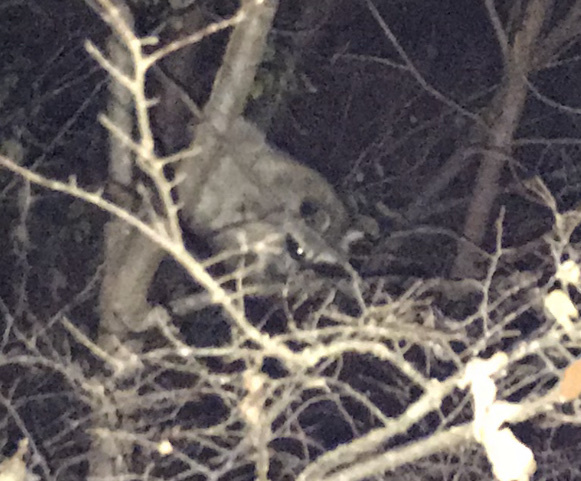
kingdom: Animalia
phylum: Chordata
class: Mammalia
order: Carnivora
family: Procyonidae
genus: Procyon
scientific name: Procyon lotor
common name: Raccoon
